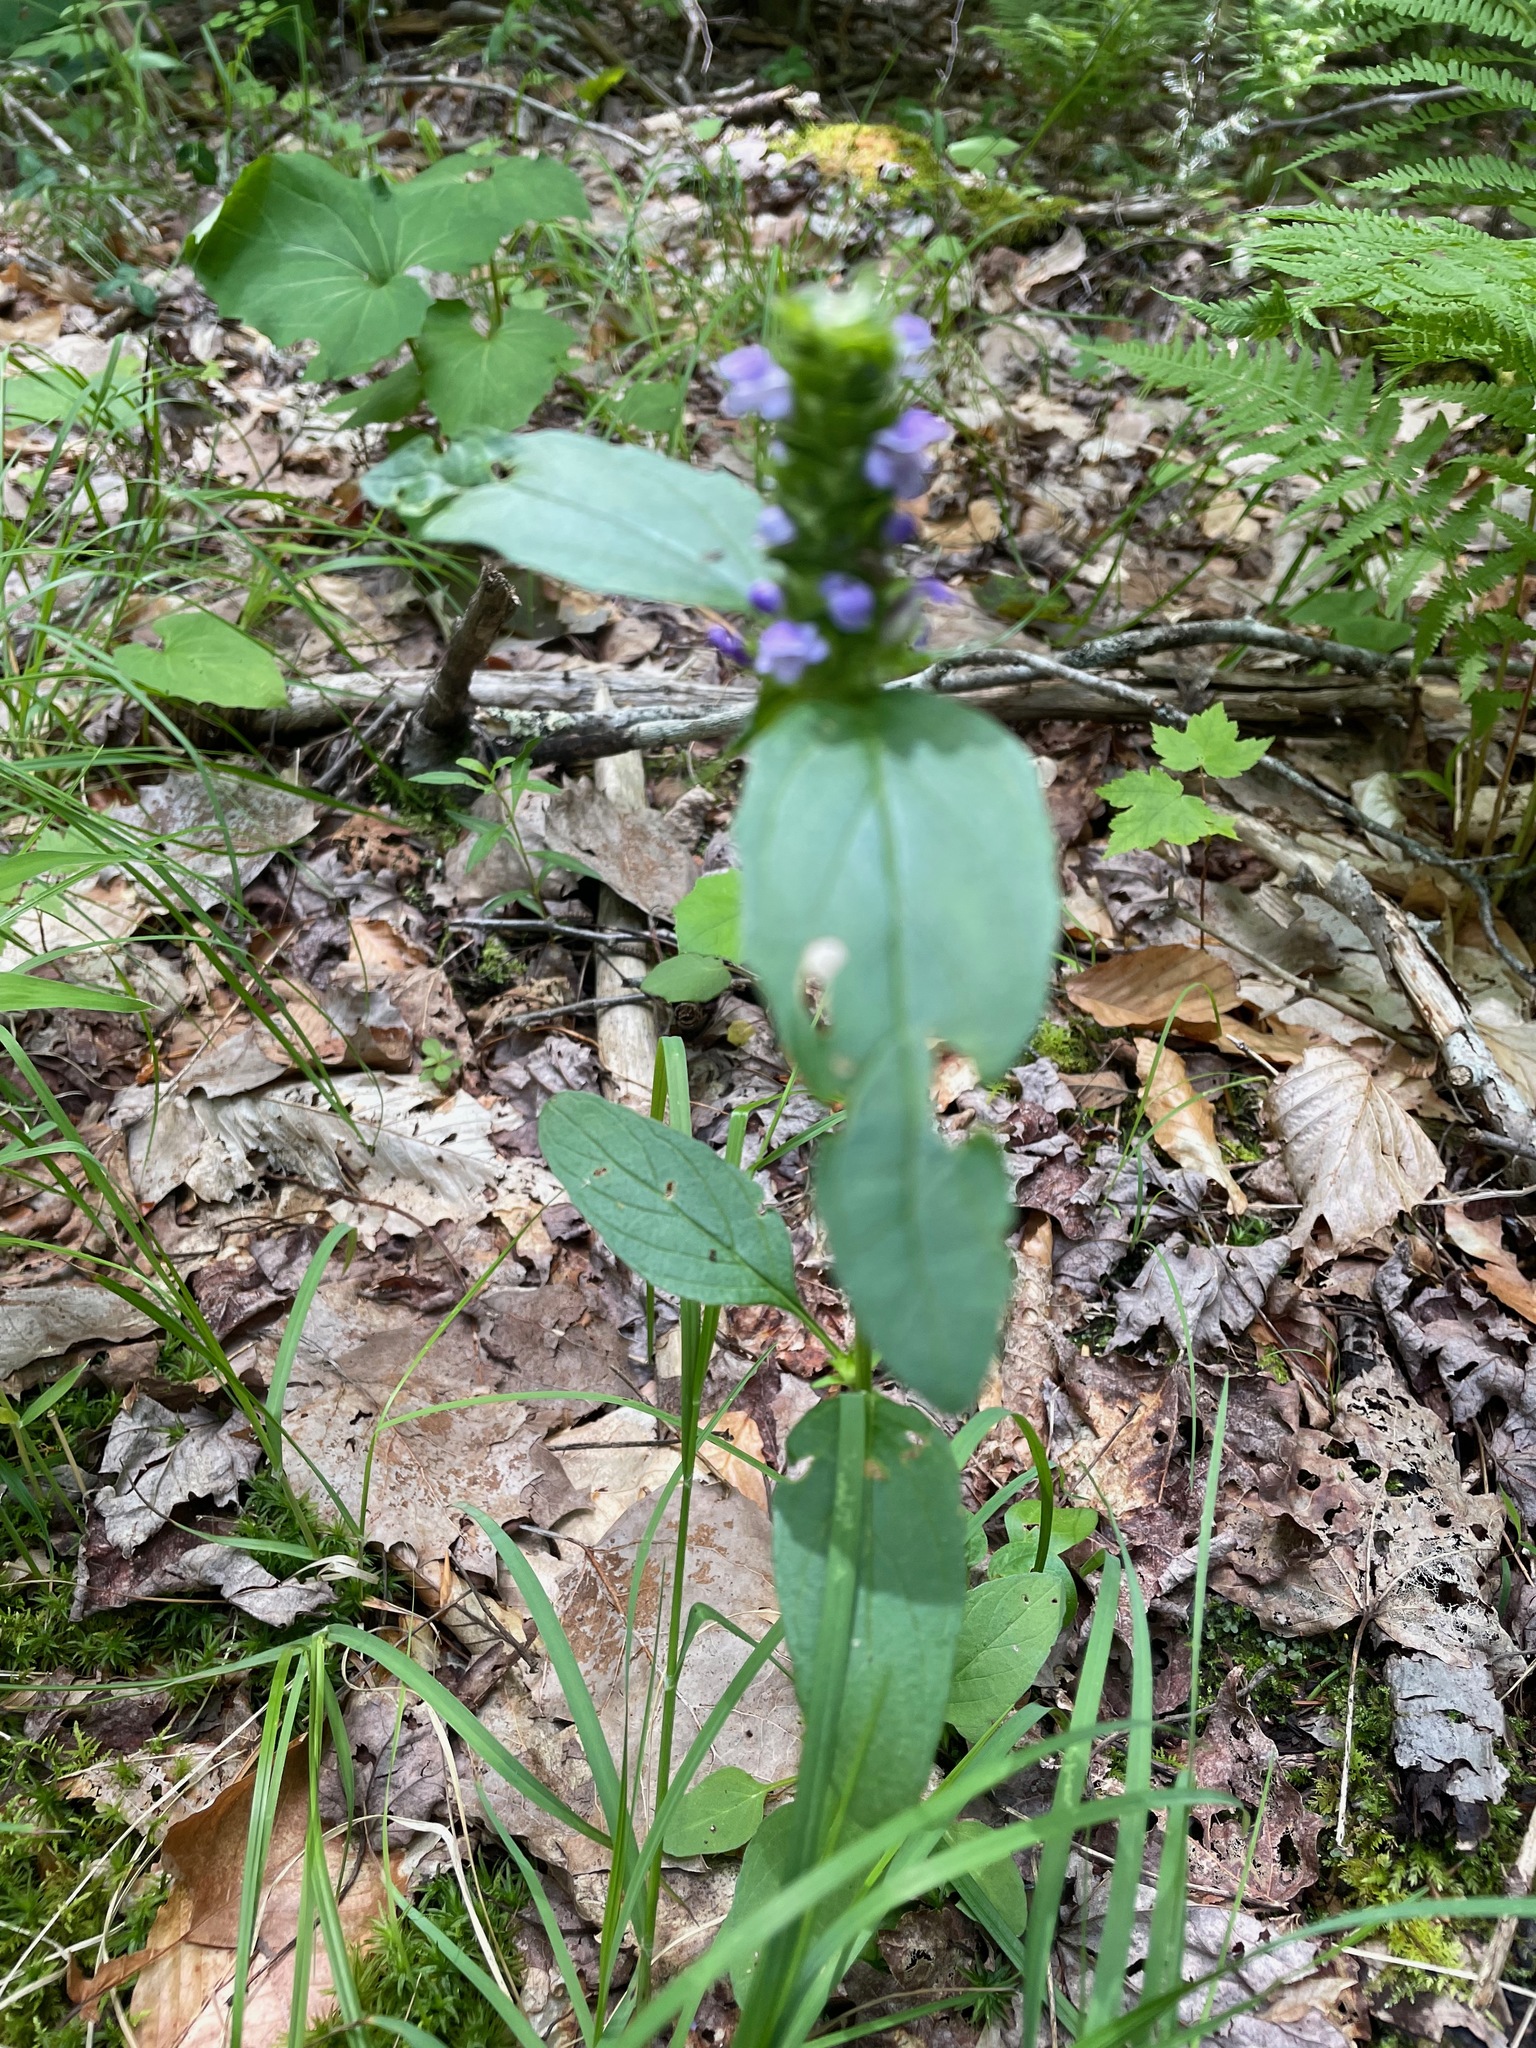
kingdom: Plantae
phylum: Tracheophyta
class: Magnoliopsida
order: Lamiales
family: Lamiaceae
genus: Prunella
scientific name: Prunella vulgaris
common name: Heal-all
